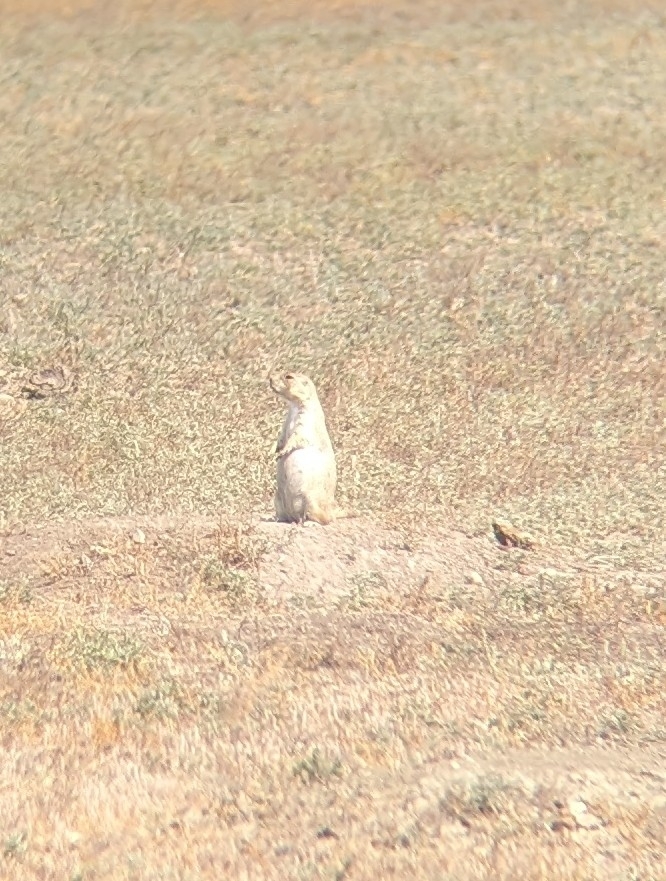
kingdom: Animalia
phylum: Chordata
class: Mammalia
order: Rodentia
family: Sciuridae
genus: Cynomys
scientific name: Cynomys ludovicianus
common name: Black-tailed prairie dog
